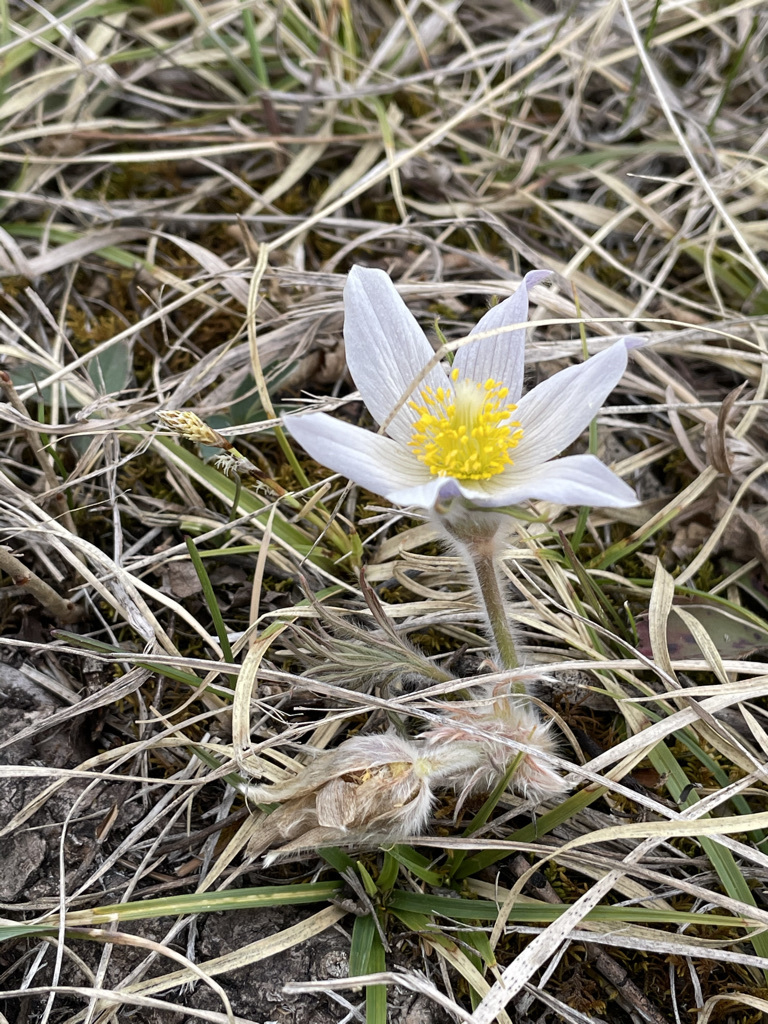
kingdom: Plantae
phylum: Tracheophyta
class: Magnoliopsida
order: Ranunculales
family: Ranunculaceae
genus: Pulsatilla
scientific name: Pulsatilla nuttalliana
